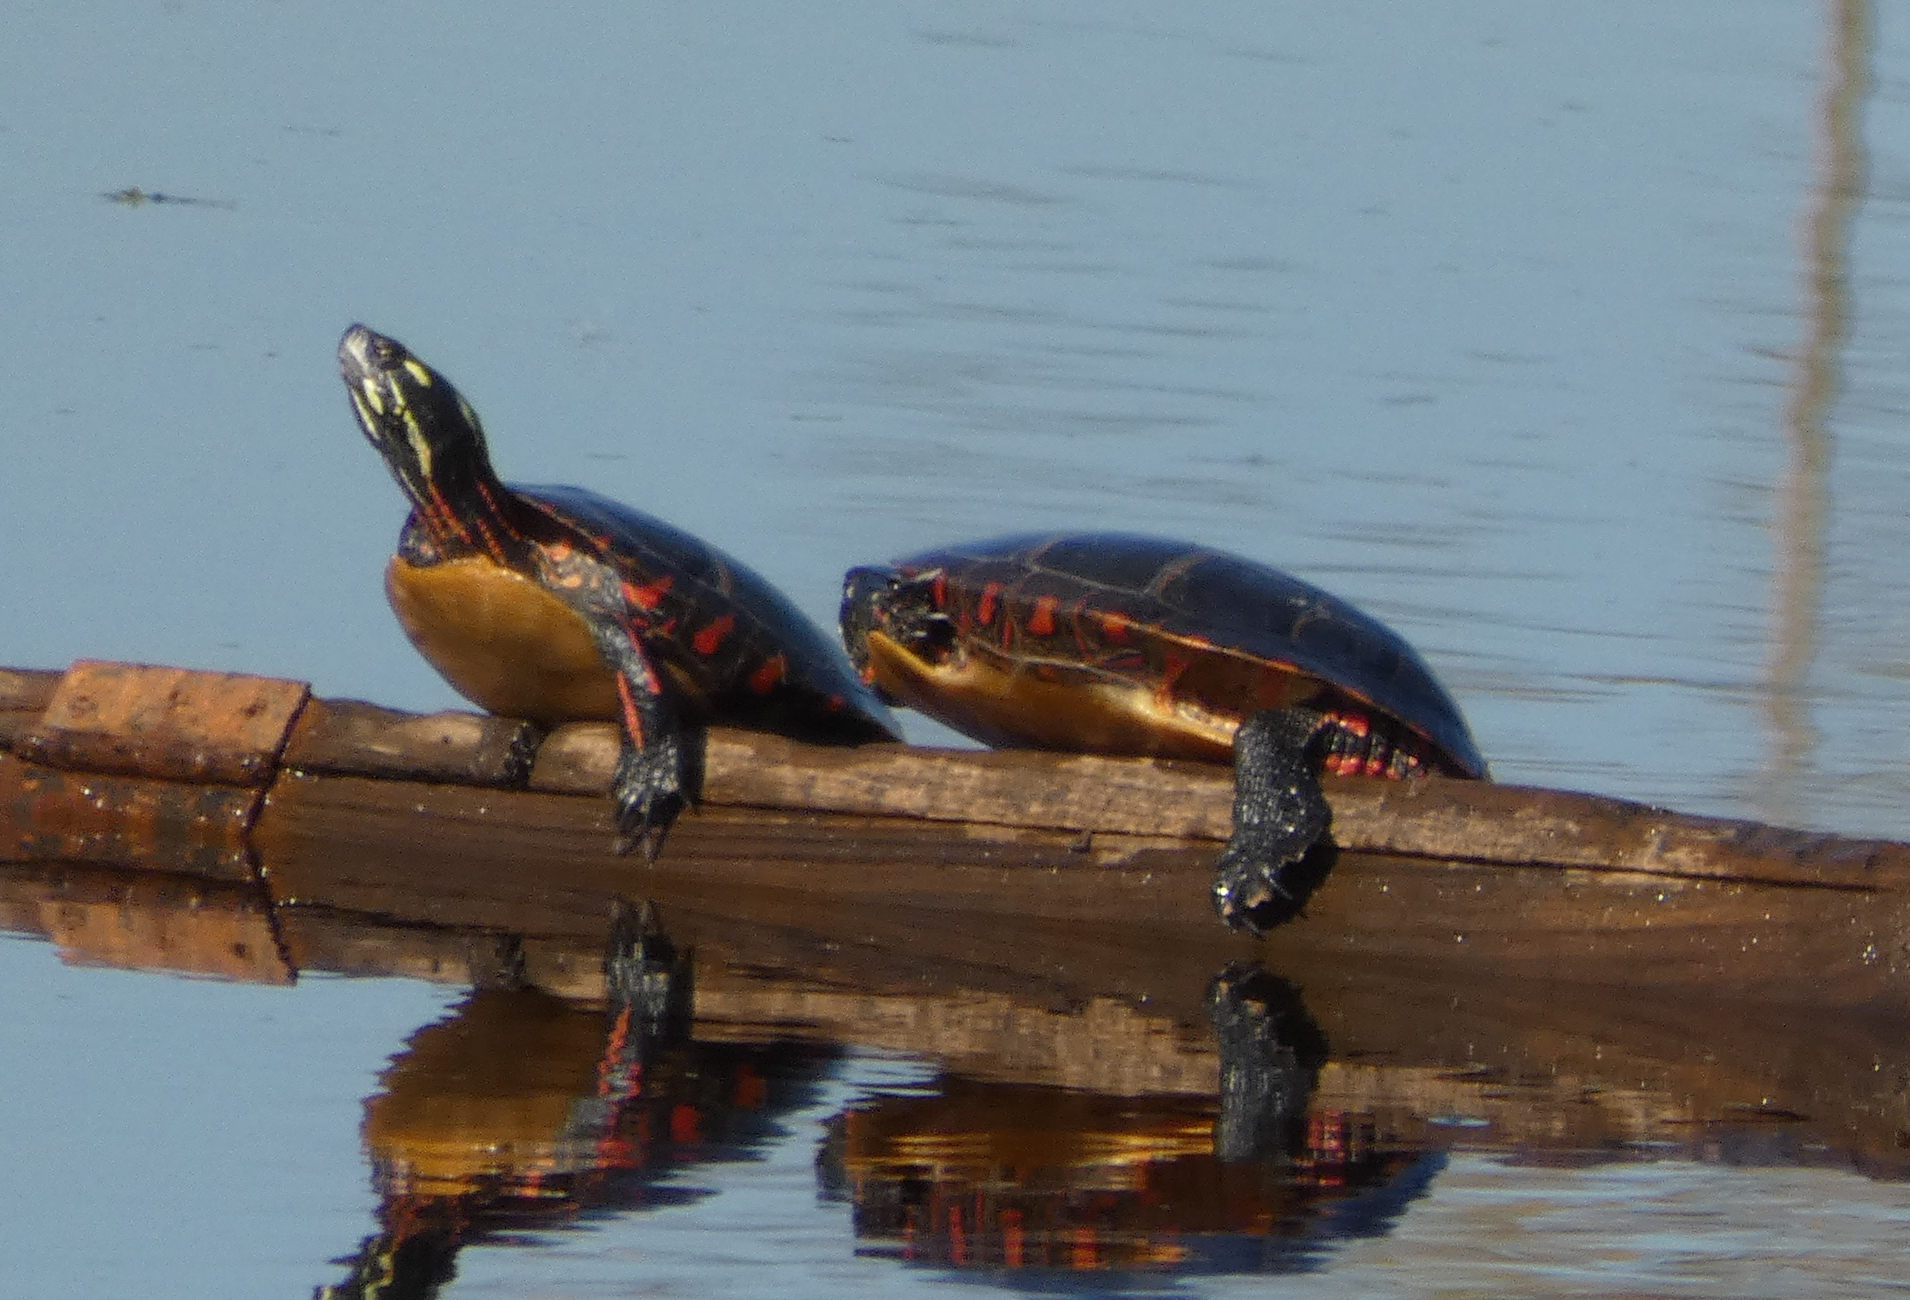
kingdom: Animalia
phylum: Chordata
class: Testudines
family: Emydidae
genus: Chrysemys
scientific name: Chrysemys picta
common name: Painted turtle
